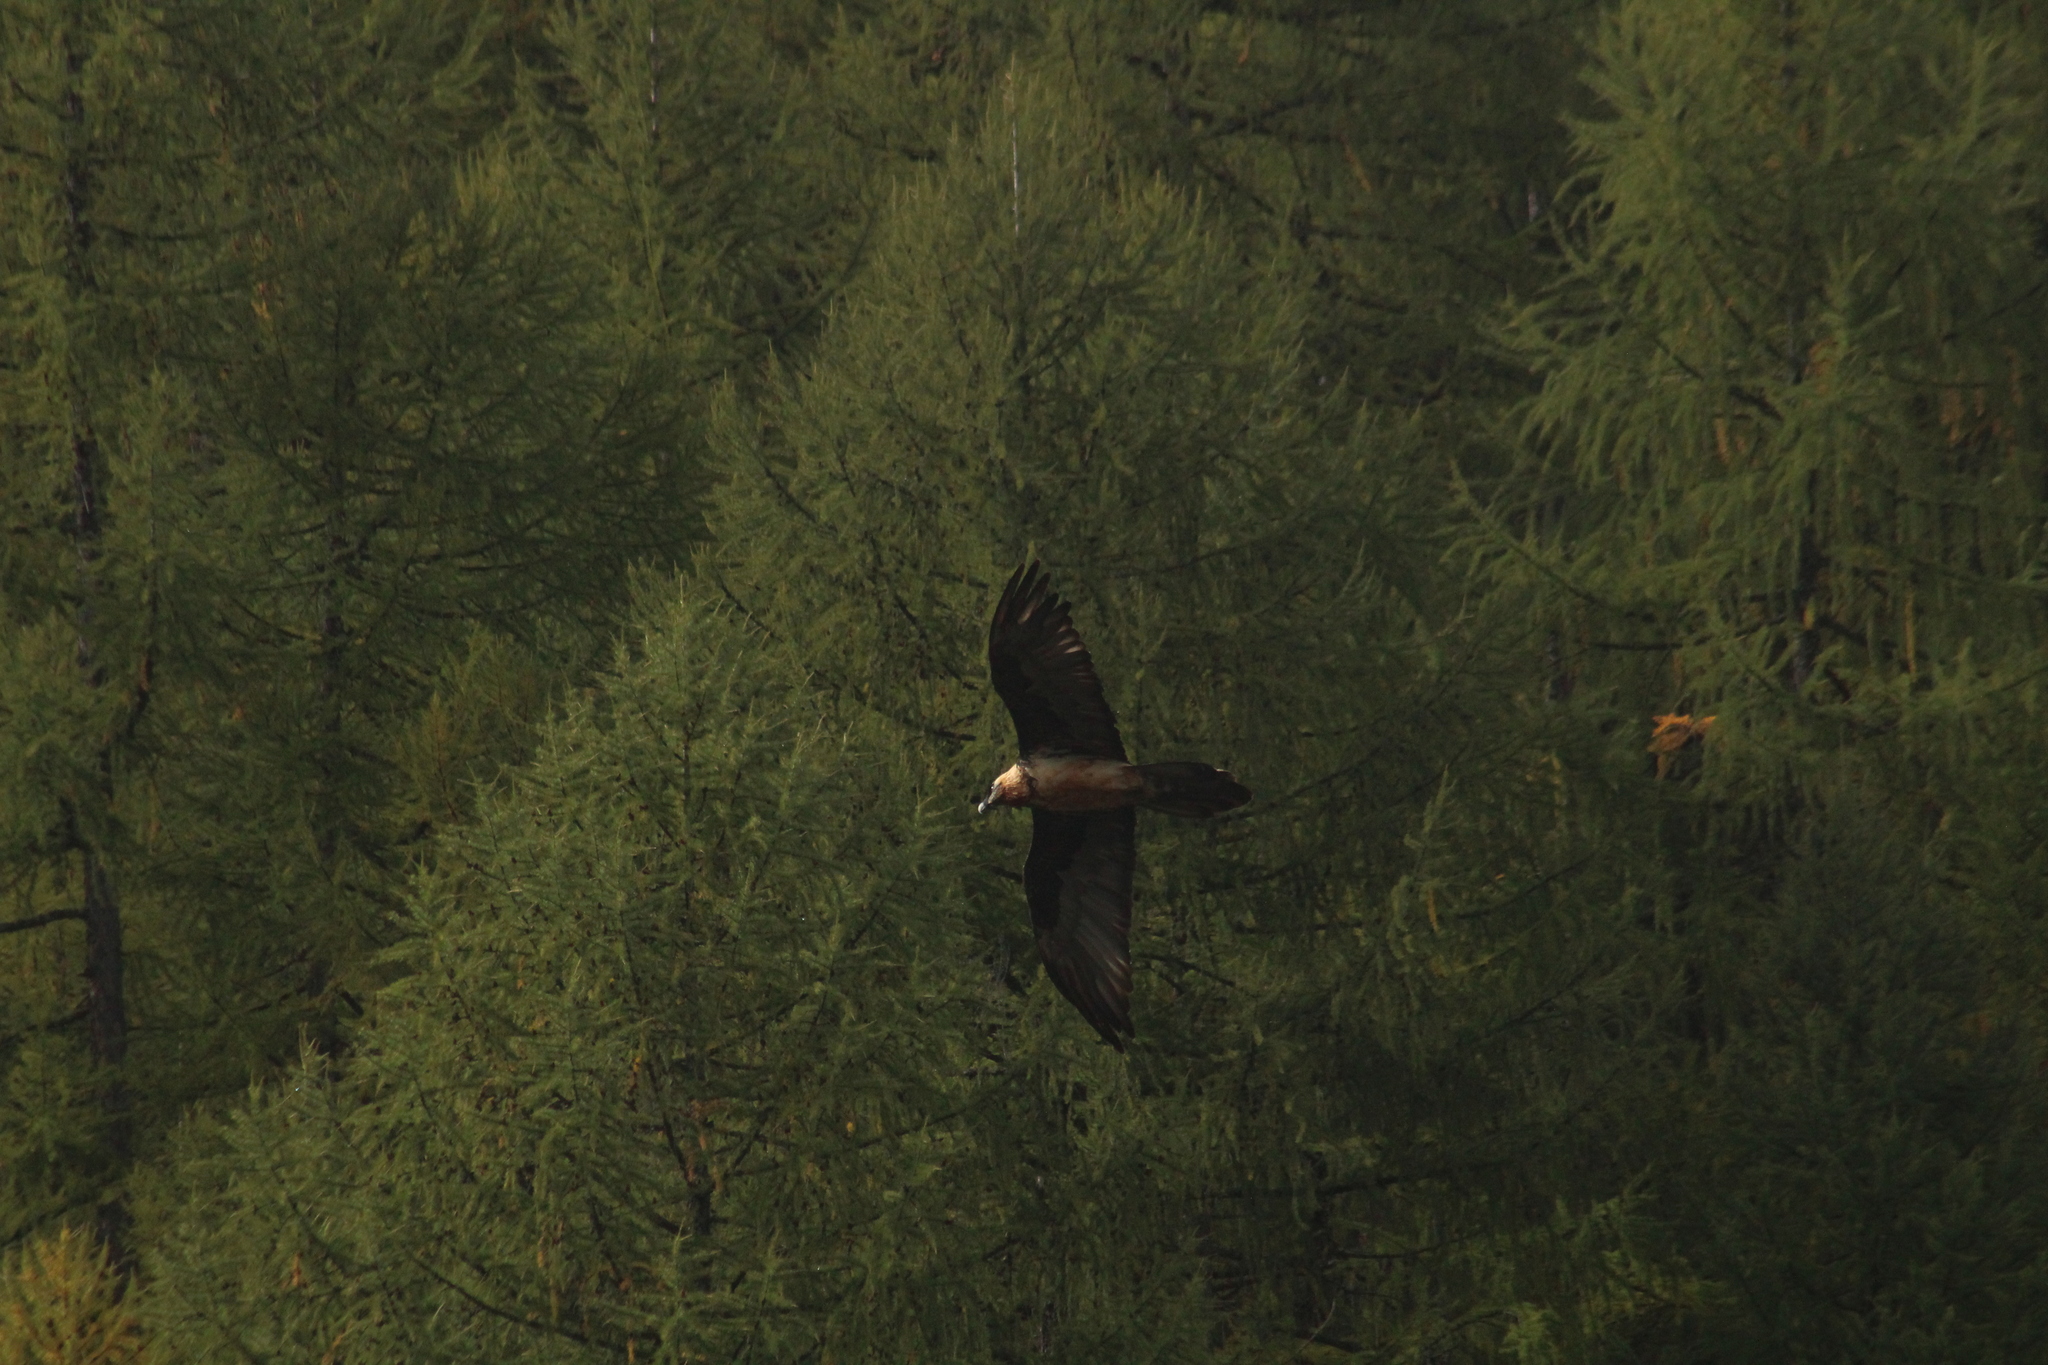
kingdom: Animalia
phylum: Chordata
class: Aves
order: Accipitriformes
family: Accipitridae
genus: Gypaetus
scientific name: Gypaetus barbatus
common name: Bearded vulture
